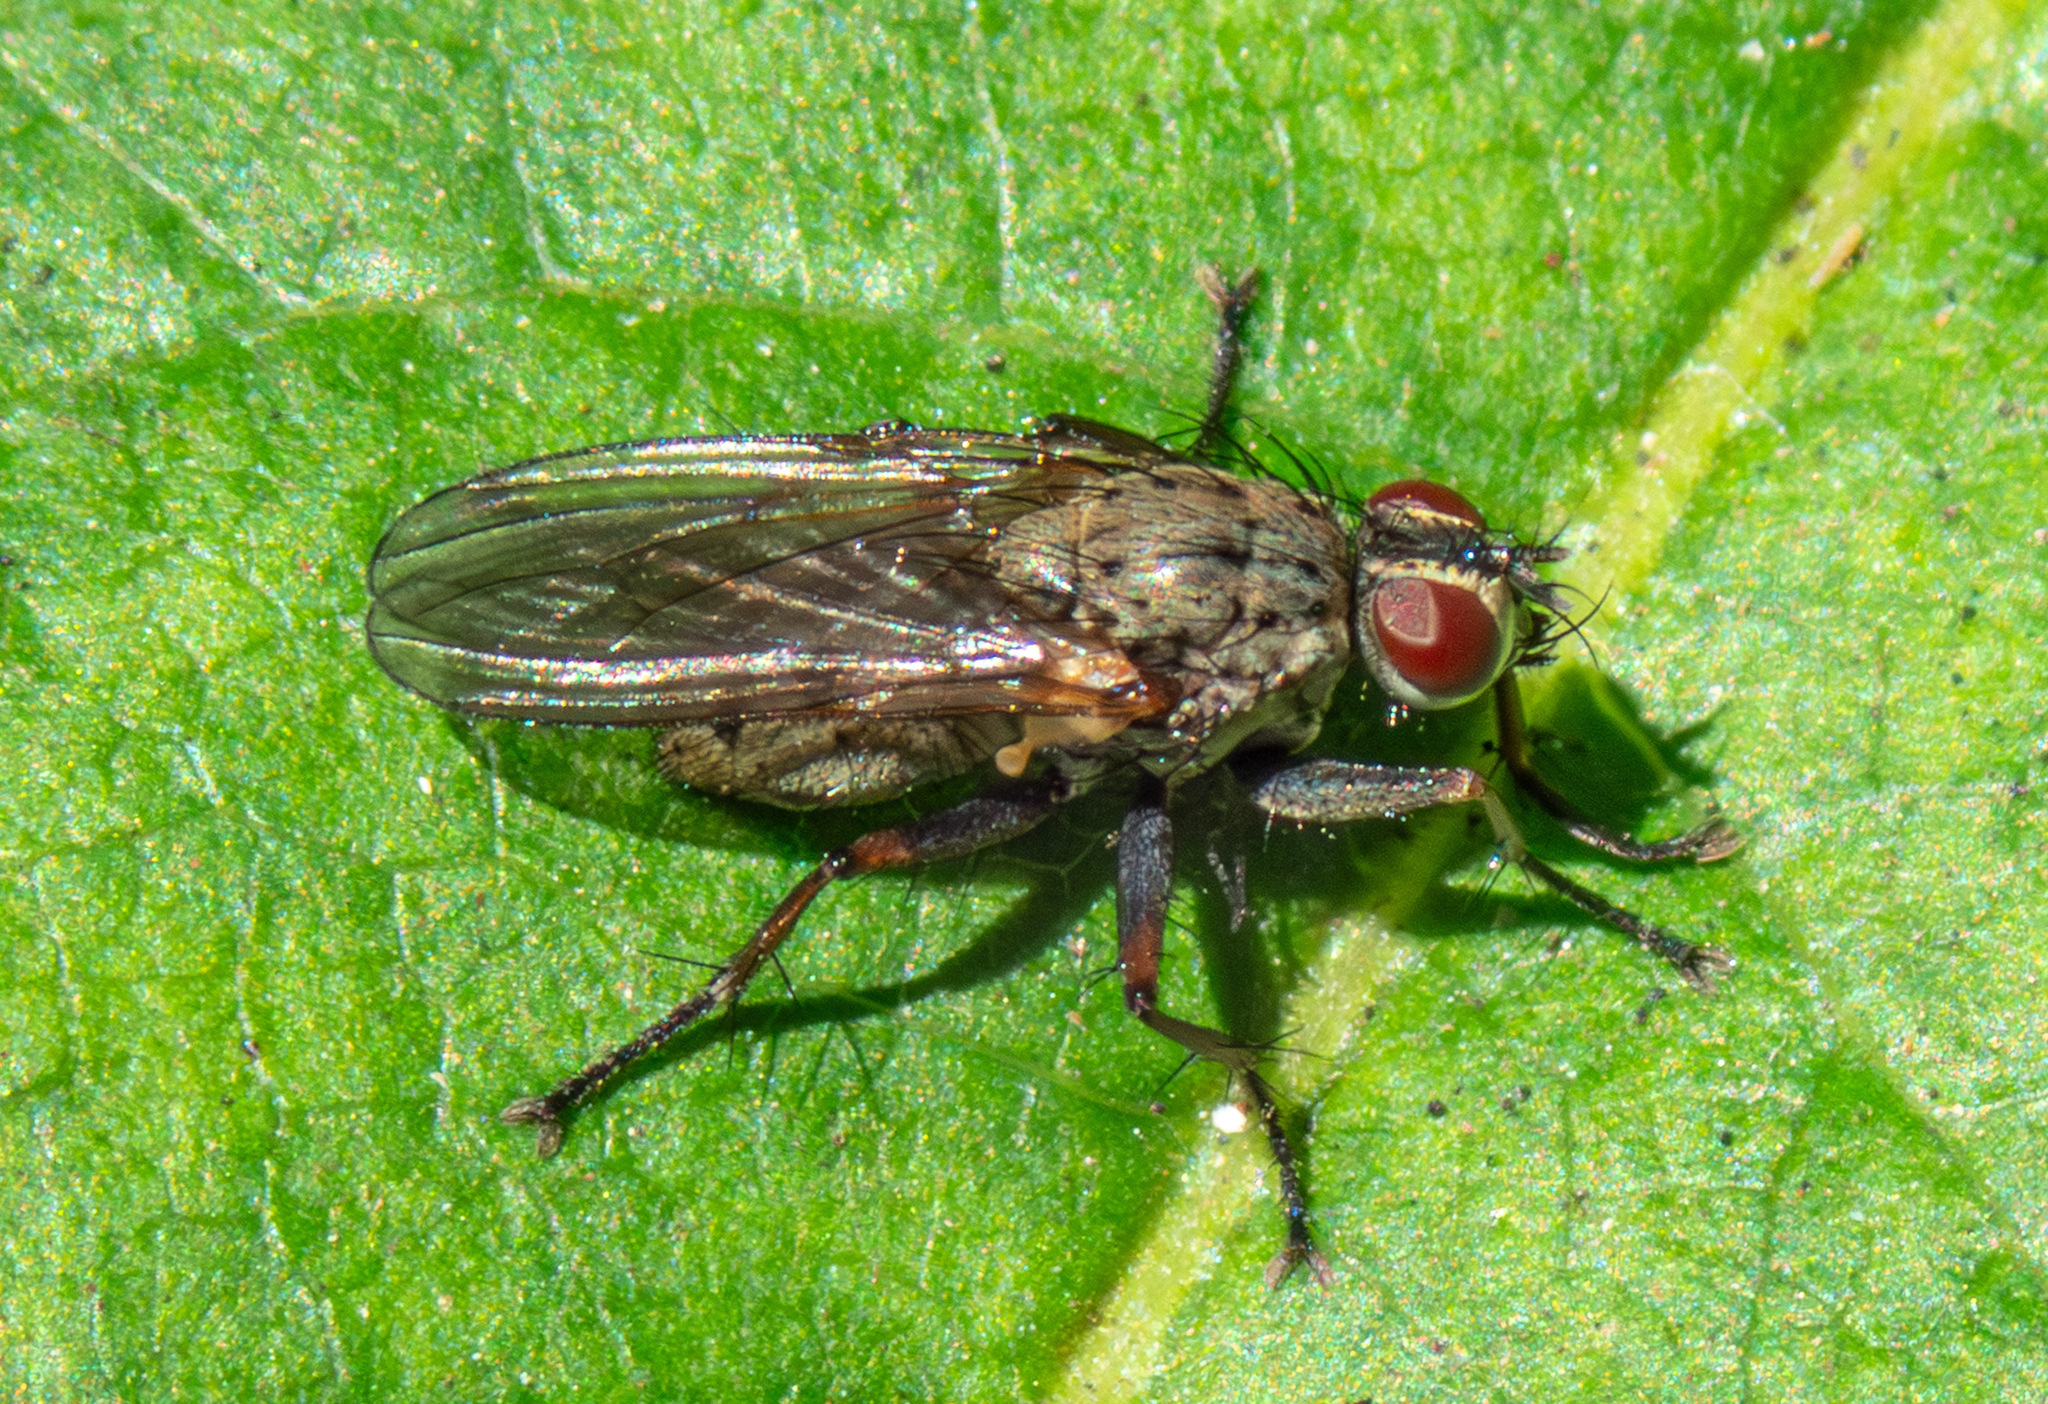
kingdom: Animalia
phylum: Arthropoda
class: Insecta
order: Diptera
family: Muscidae
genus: Coenosia
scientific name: Coenosia tigrina
